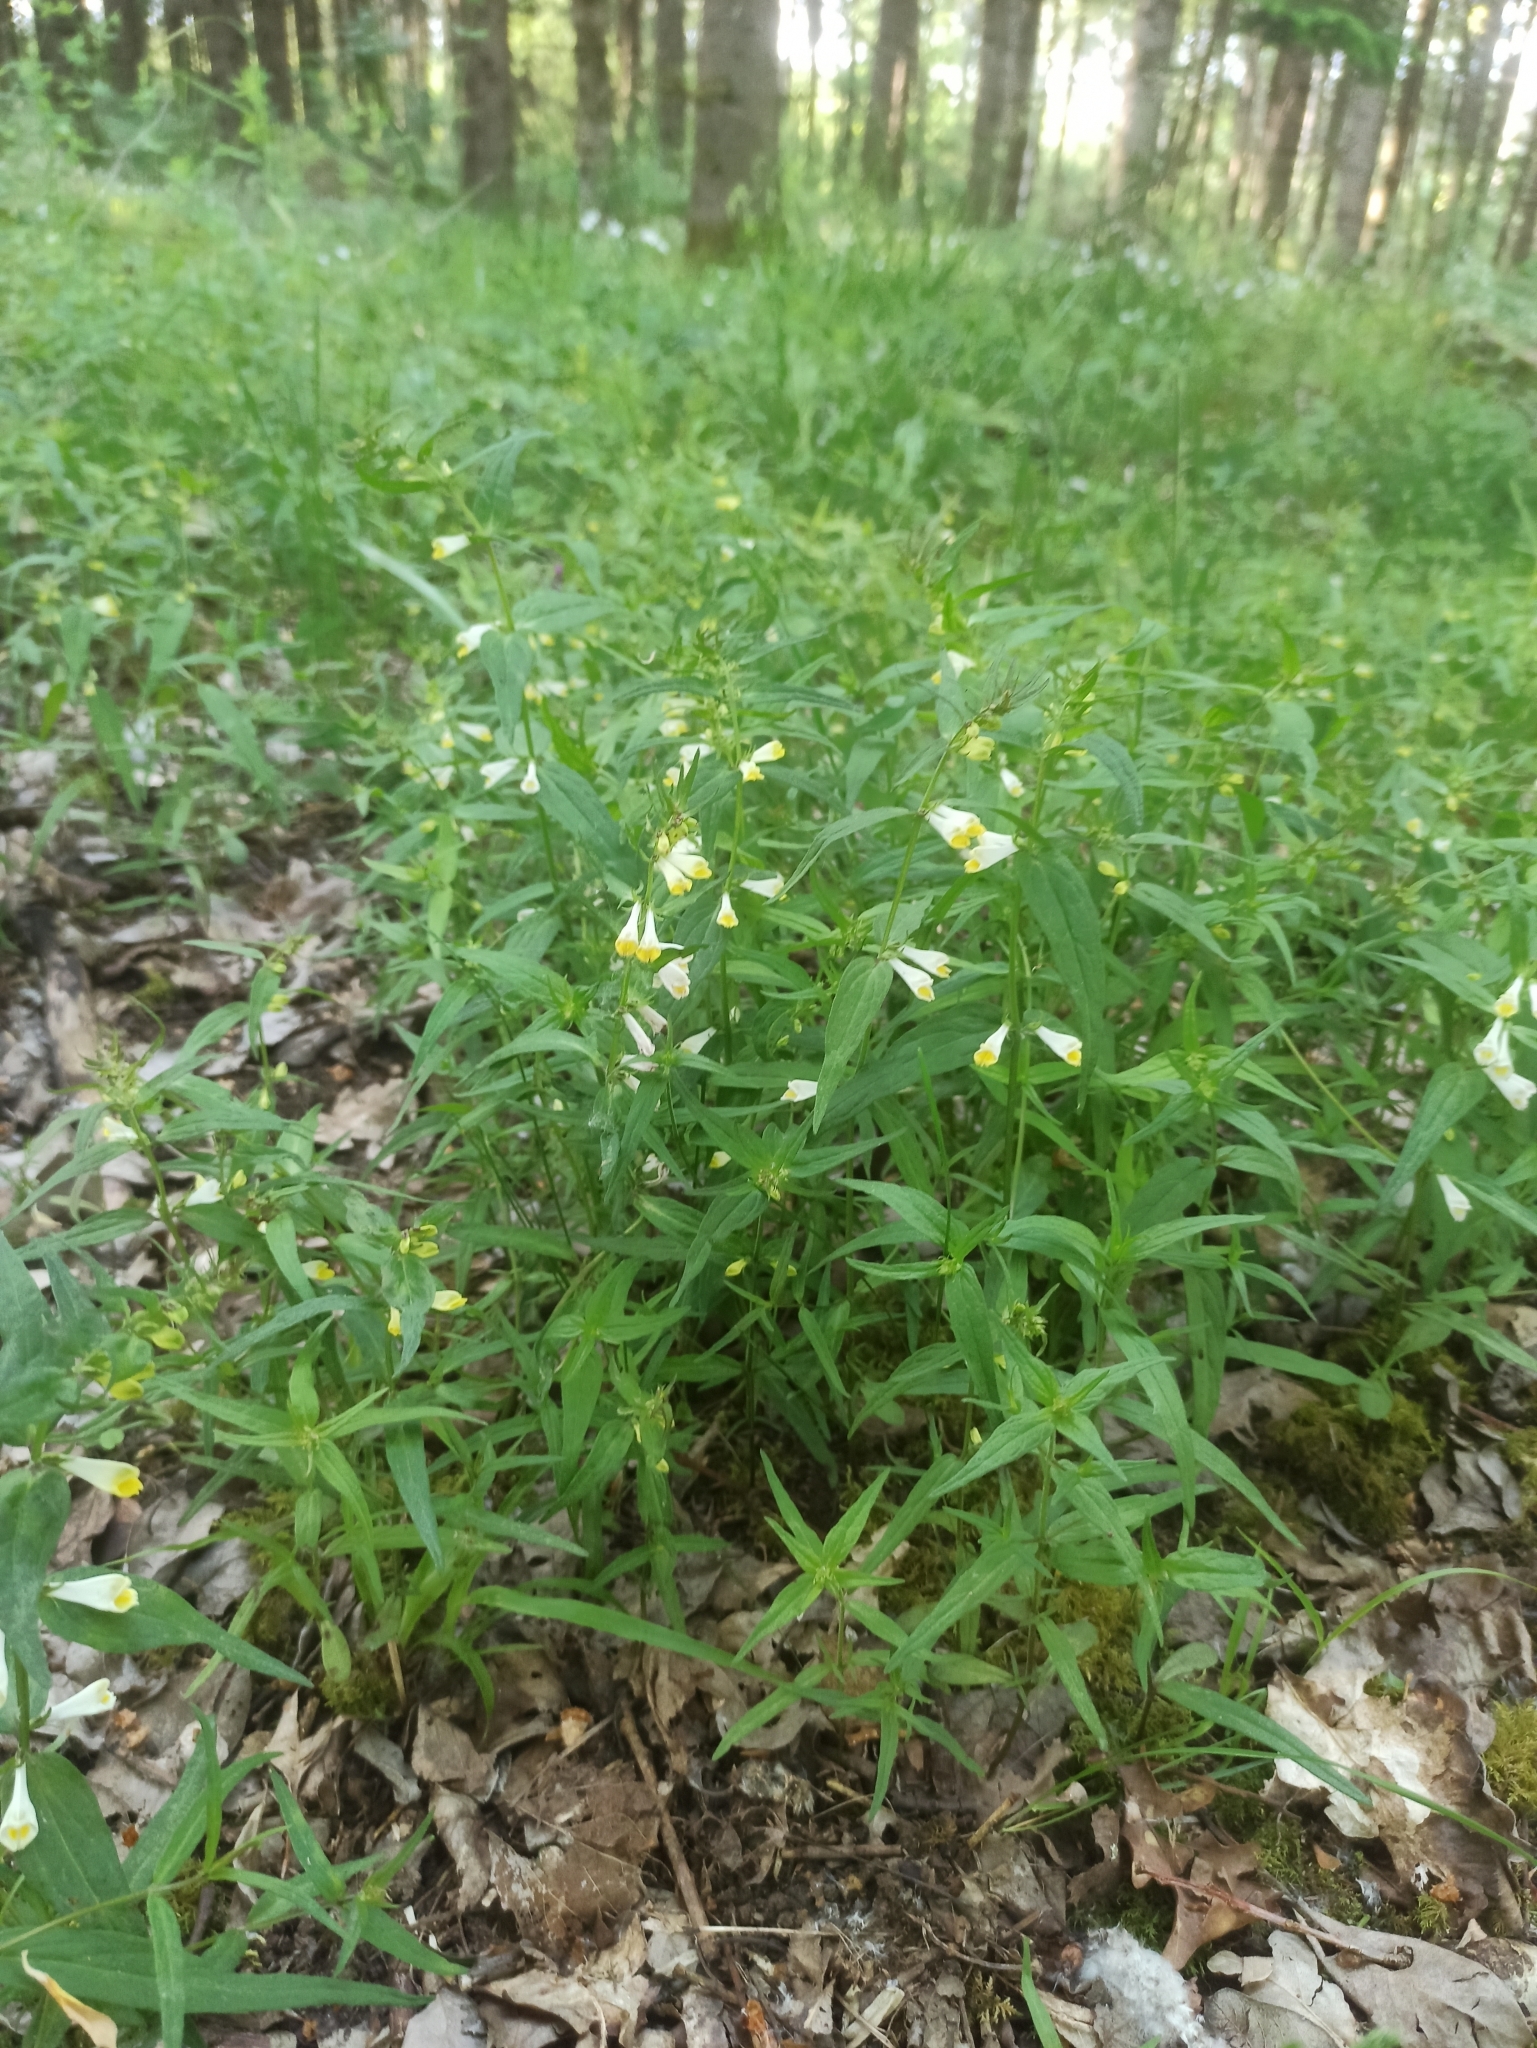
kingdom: Plantae
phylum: Tracheophyta
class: Magnoliopsida
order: Lamiales
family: Orobanchaceae
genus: Melampyrum
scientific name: Melampyrum pratense
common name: Common cow-wheat
